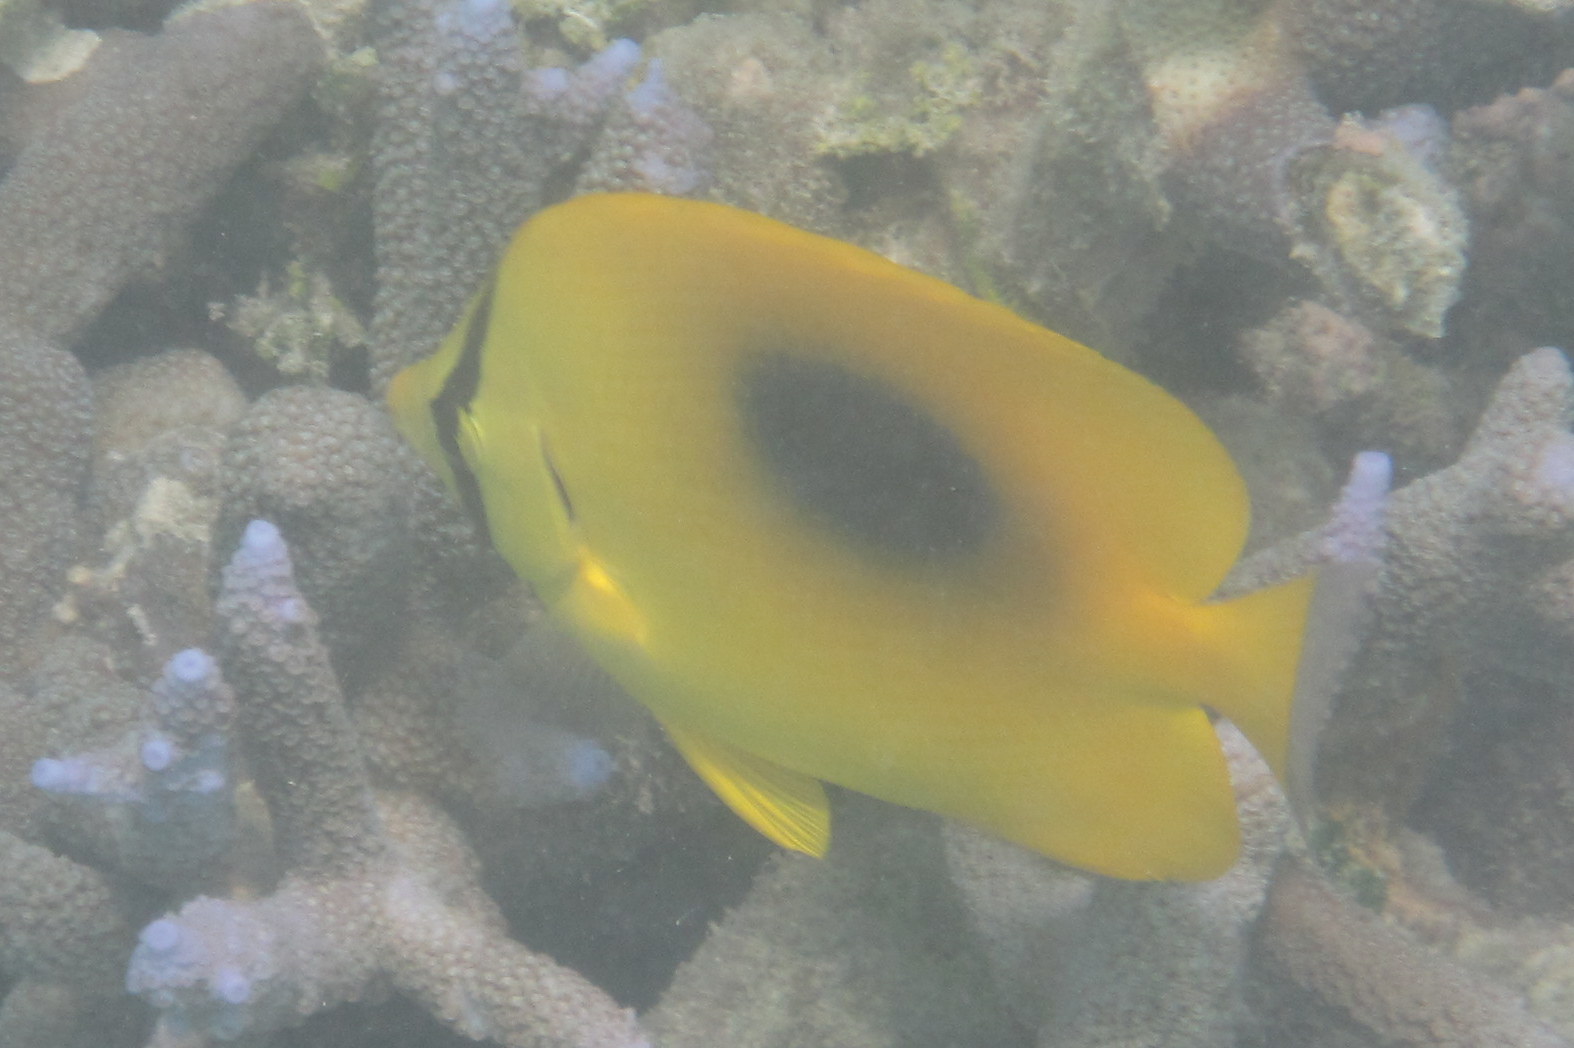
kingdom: Animalia
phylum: Chordata
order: Perciformes
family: Chaetodontidae
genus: Chaetodon
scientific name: Chaetodon speculum
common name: Mirror butterflyfish
